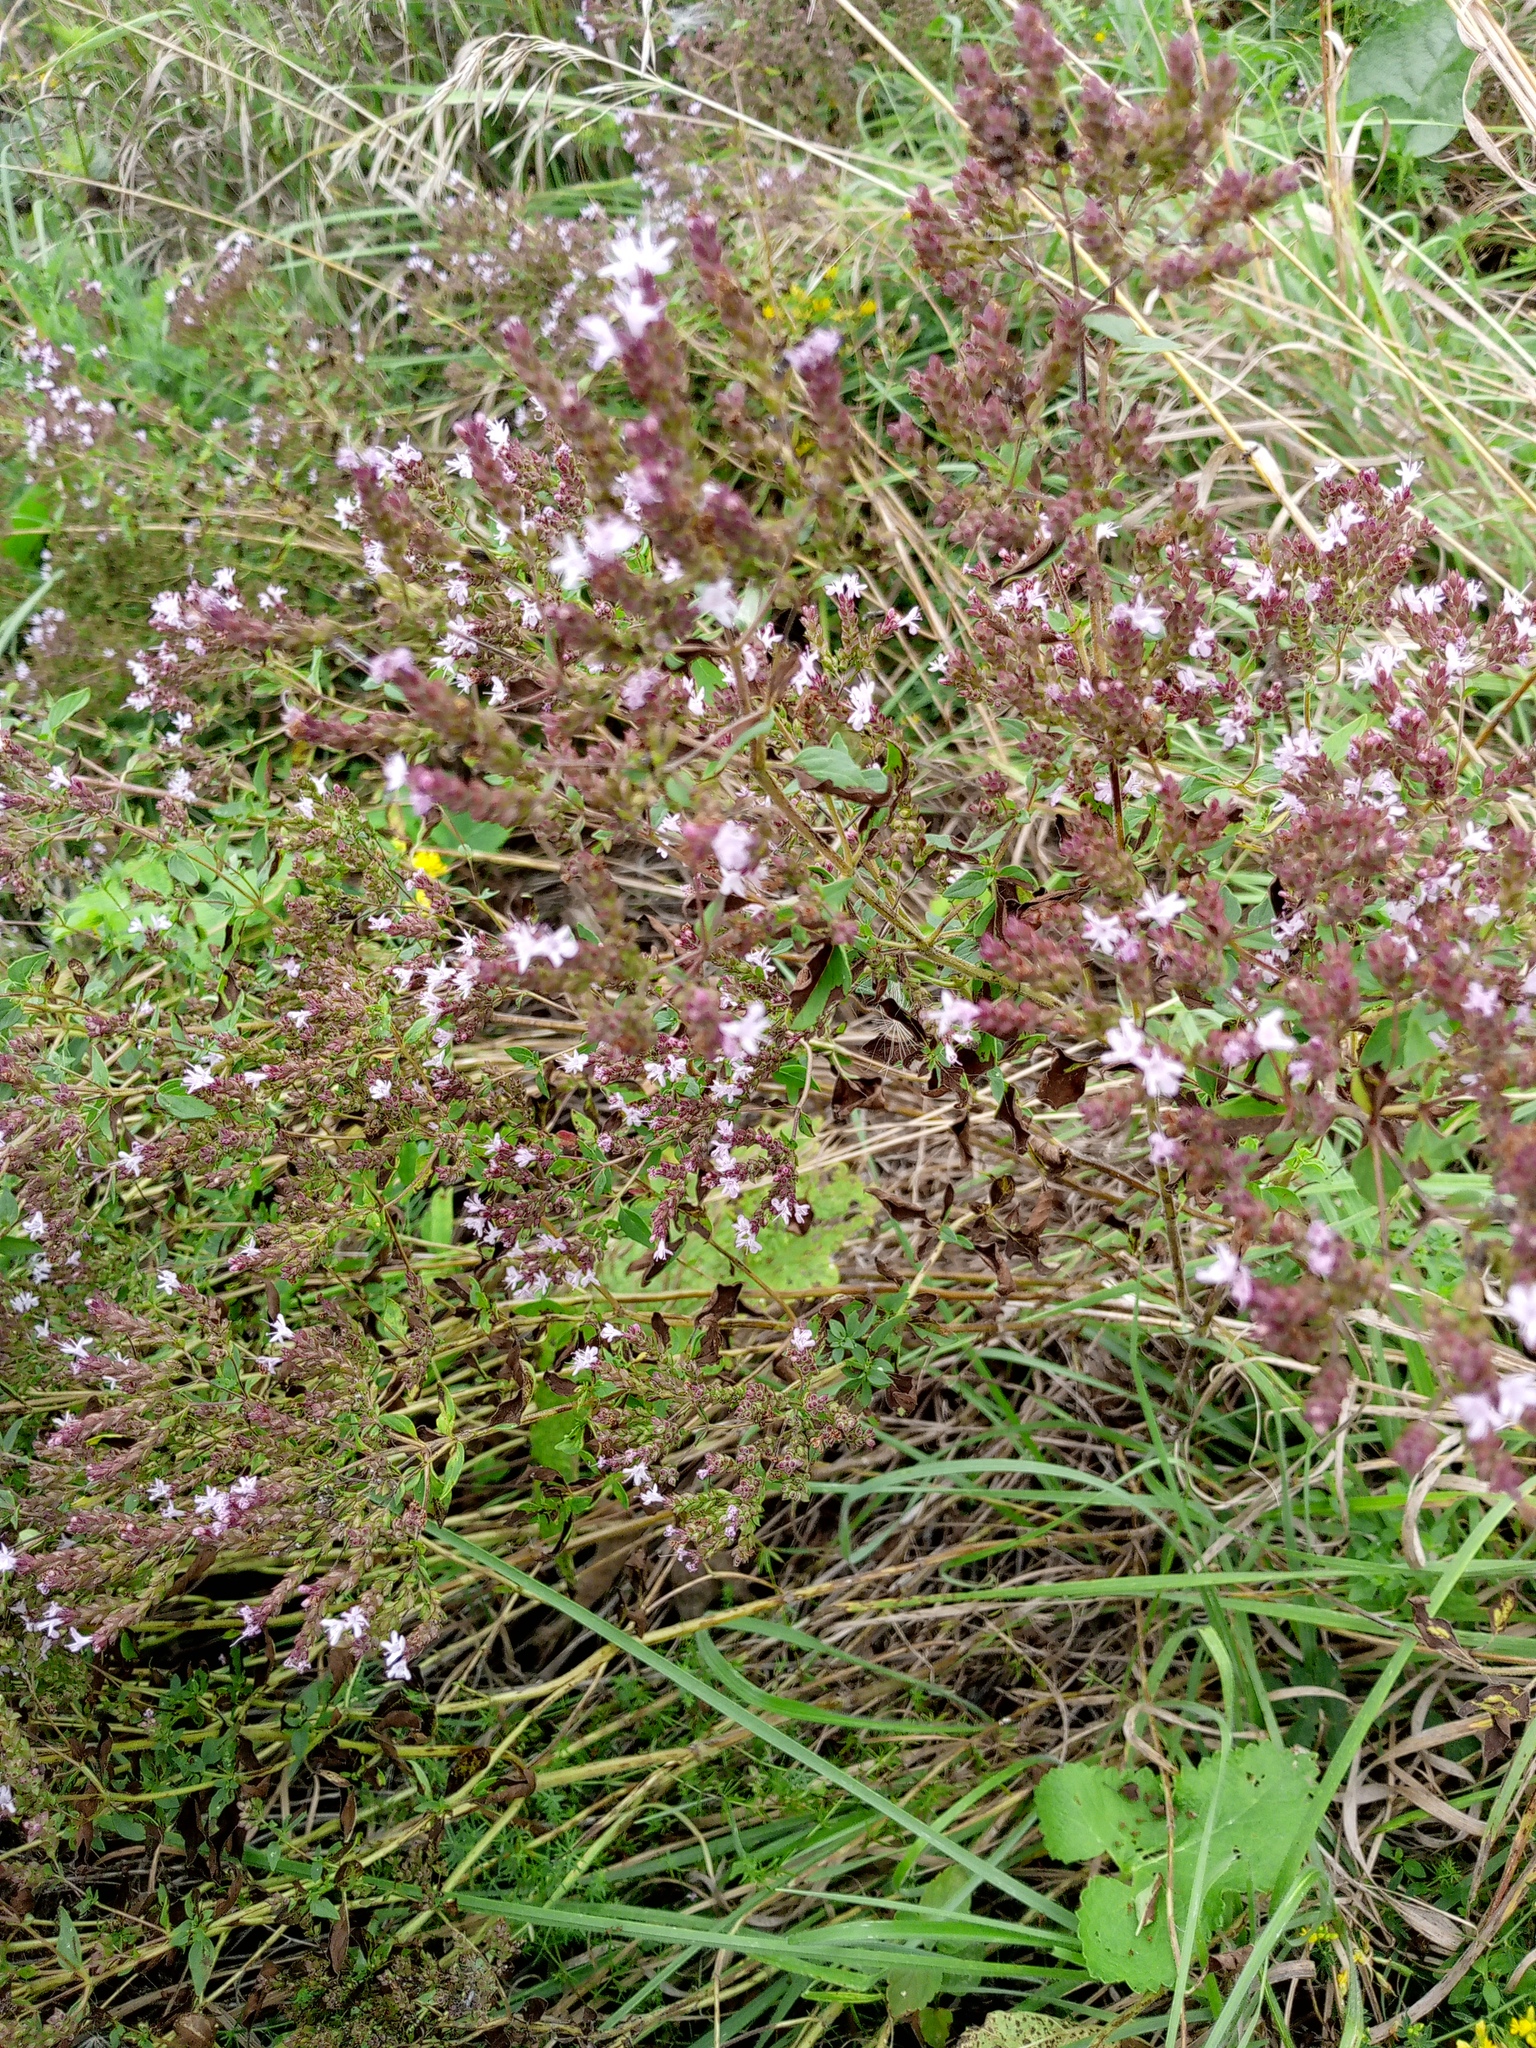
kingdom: Plantae
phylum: Tracheophyta
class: Magnoliopsida
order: Lamiales
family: Lamiaceae
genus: Origanum
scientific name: Origanum vulgare
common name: Wild marjoram
